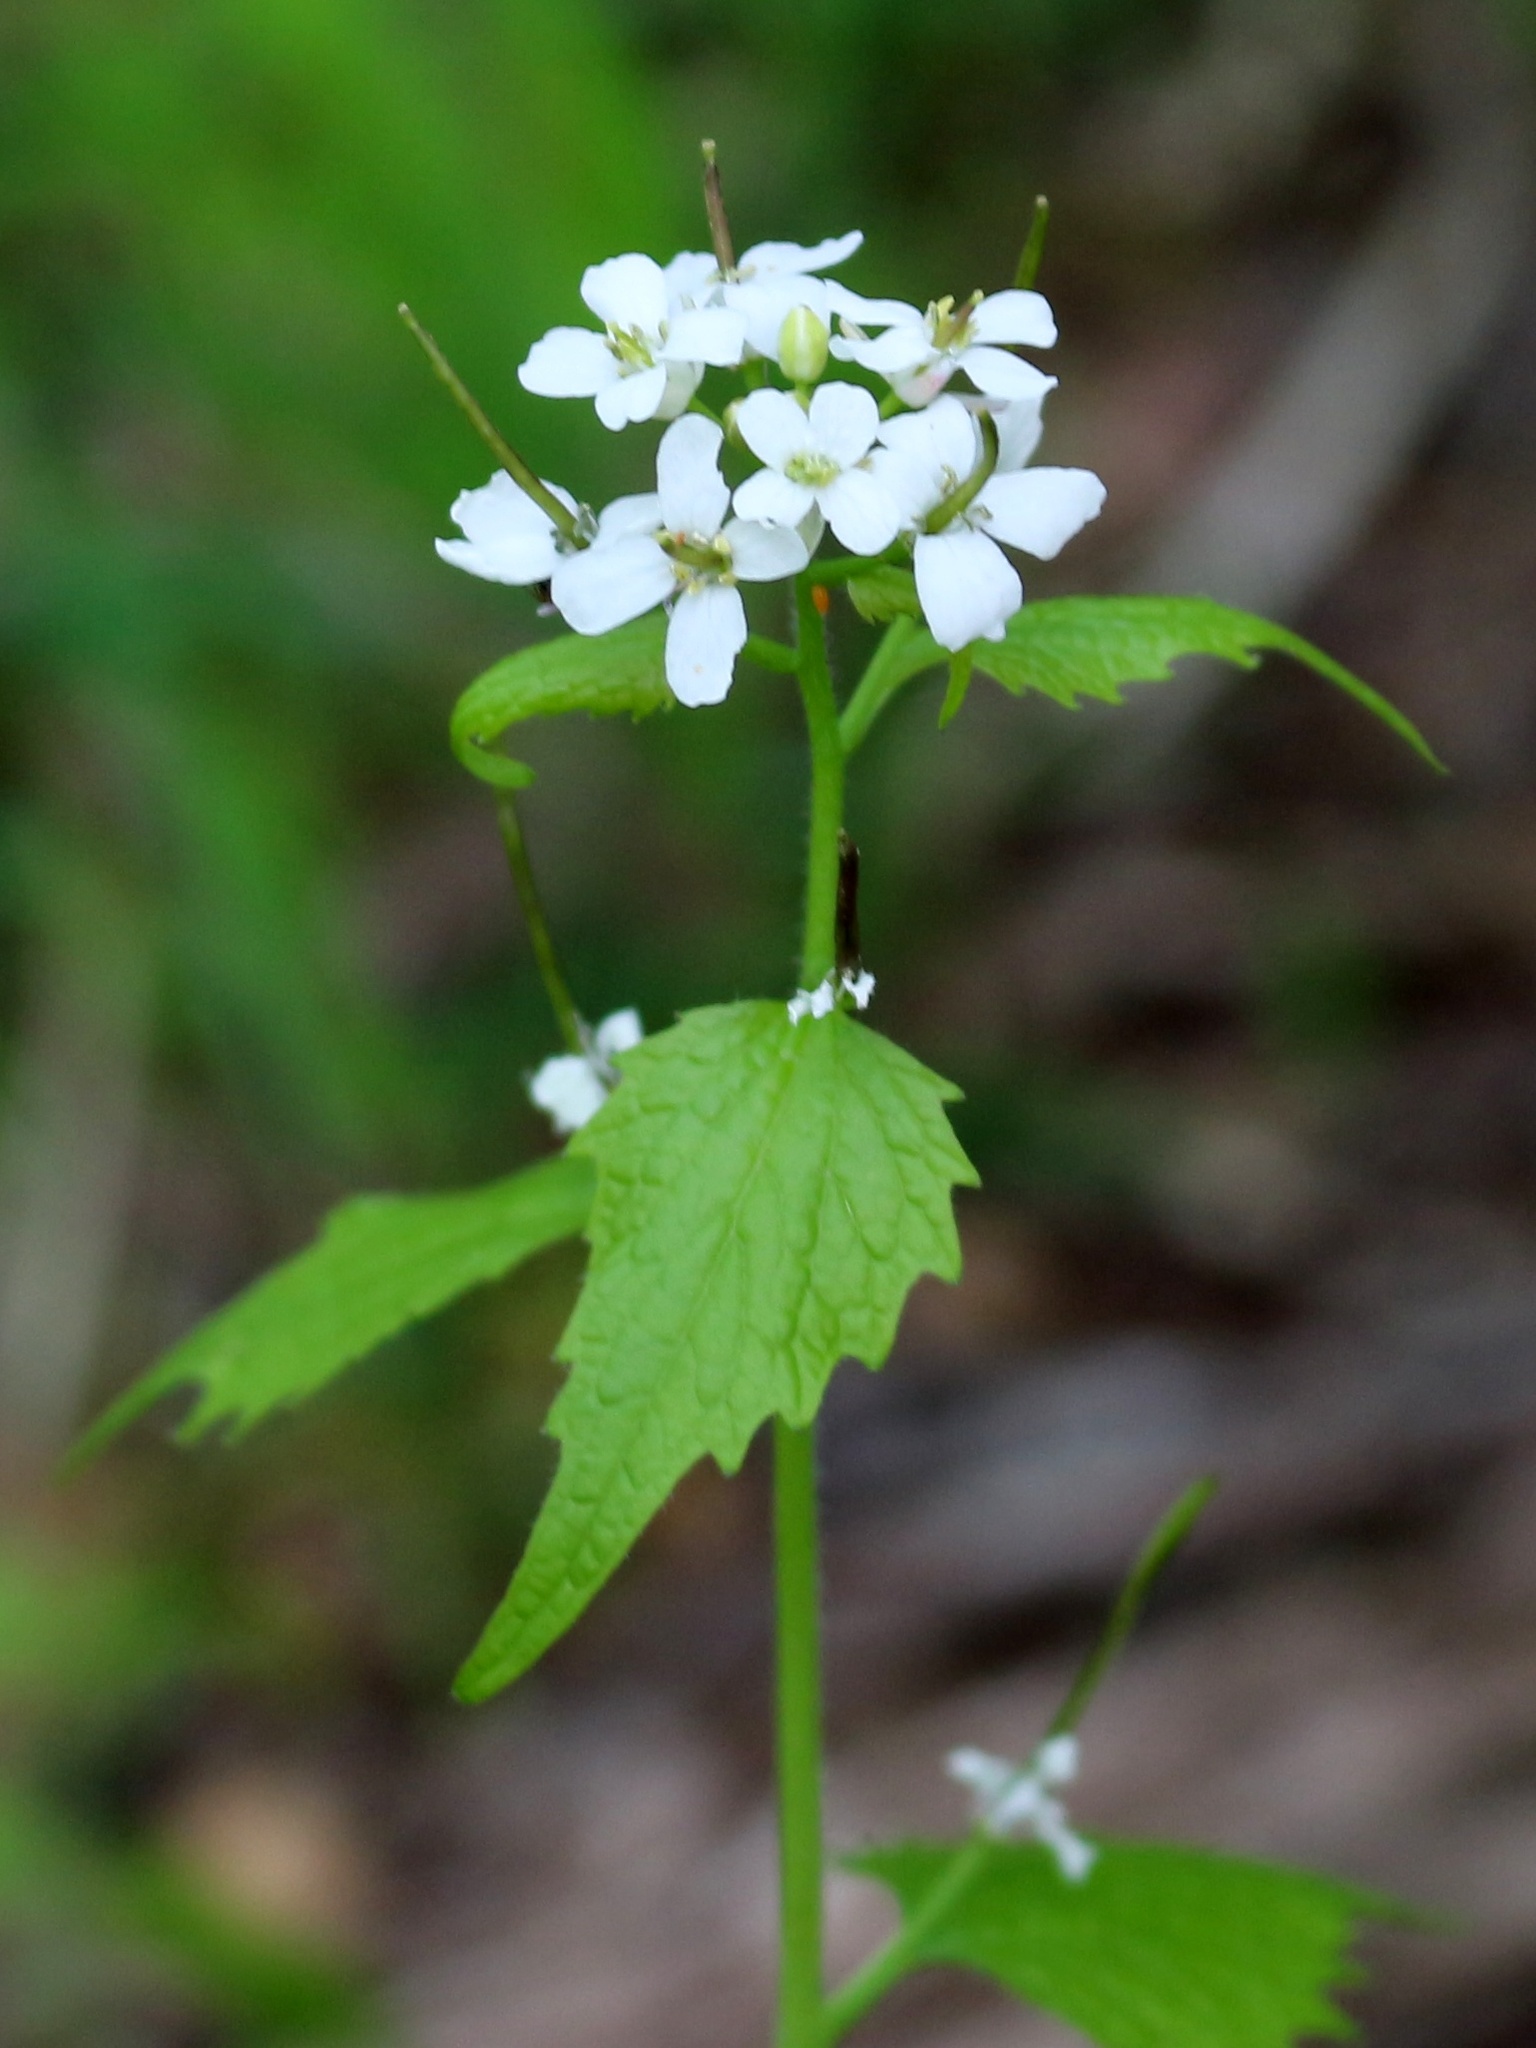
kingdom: Plantae
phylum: Tracheophyta
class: Magnoliopsida
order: Brassicales
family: Brassicaceae
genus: Alliaria
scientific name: Alliaria petiolata
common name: Garlic mustard
